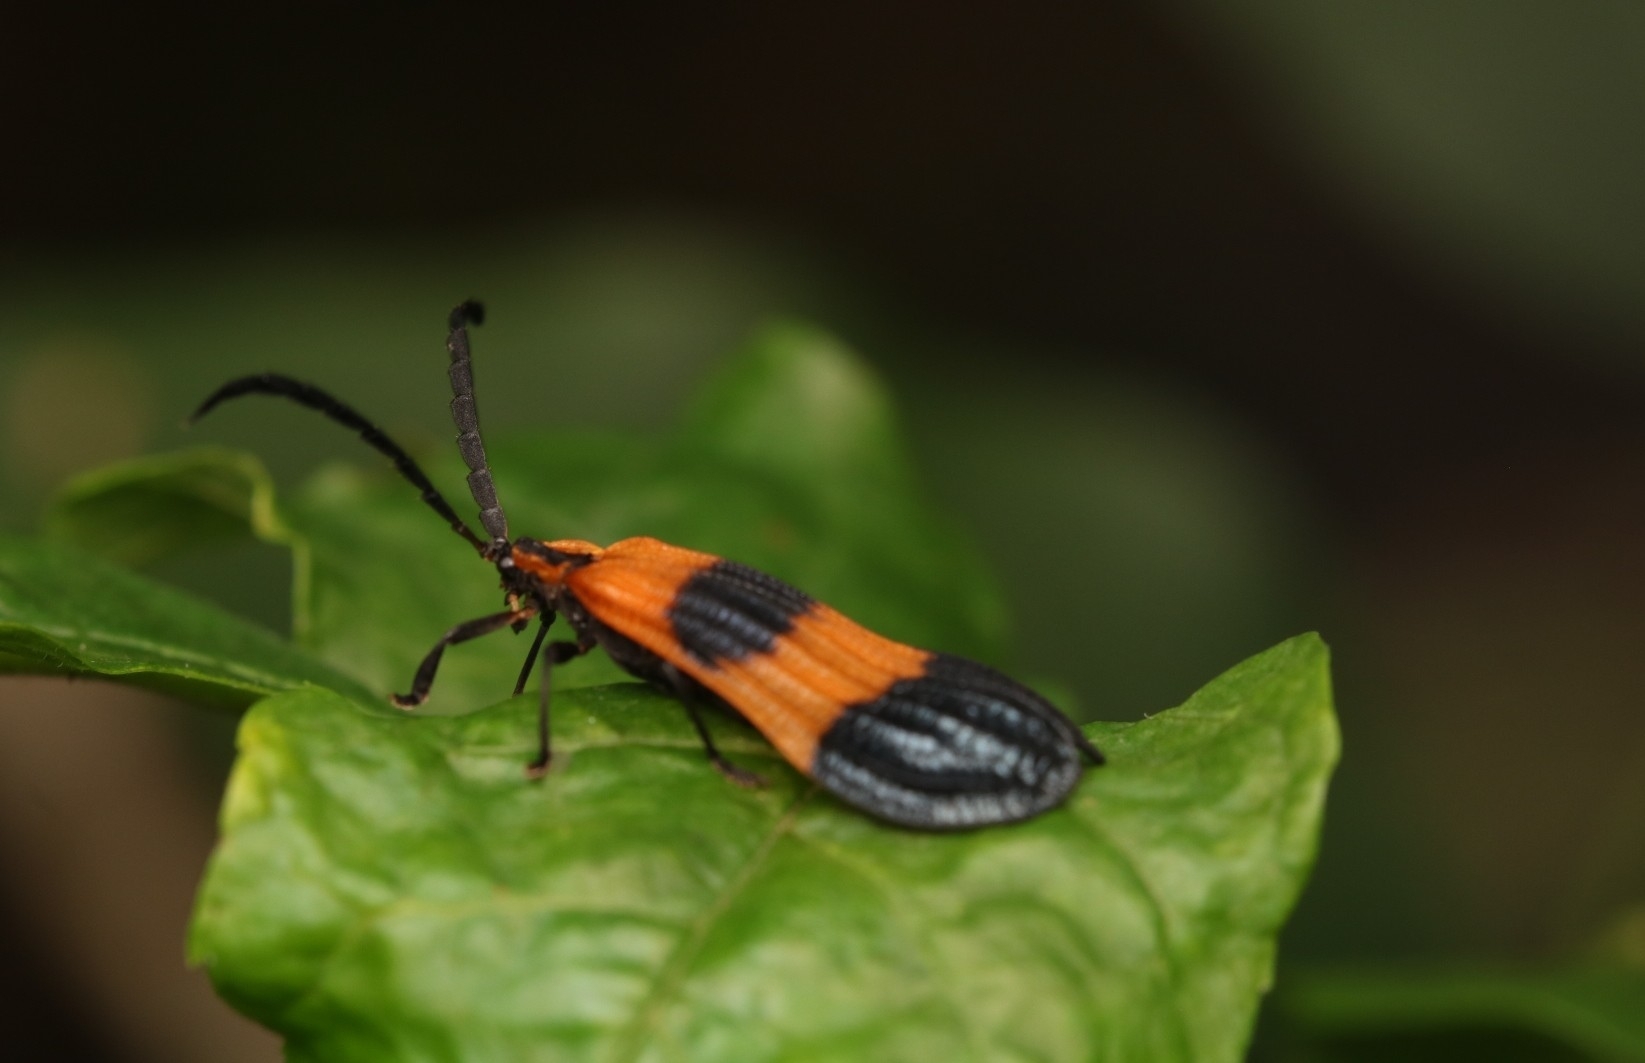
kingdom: Animalia
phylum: Arthropoda
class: Insecta
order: Coleoptera
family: Lycidae
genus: Calopteron
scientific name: Calopteron terminale
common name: End band net-winged beetle
